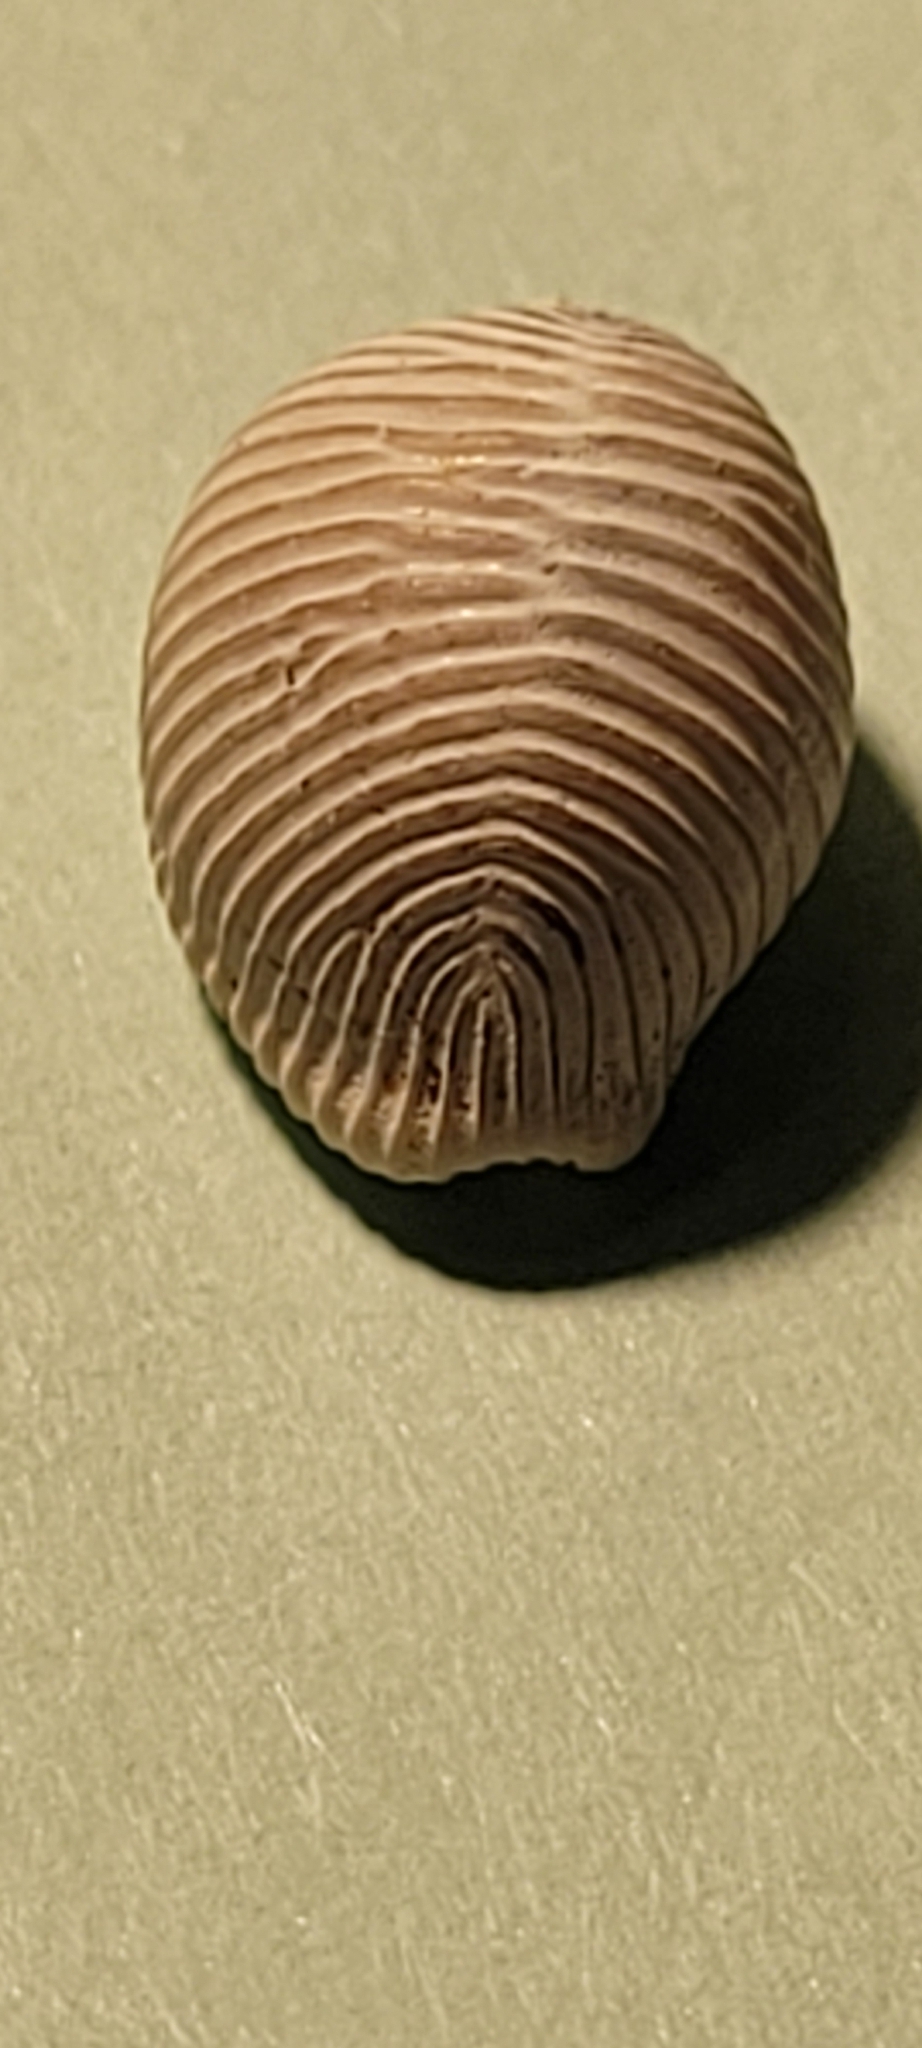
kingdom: Animalia
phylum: Mollusca
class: Gastropoda
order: Littorinimorpha
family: Triviidae
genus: Trivia
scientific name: Trivia arctica
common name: Arctic cowrie
